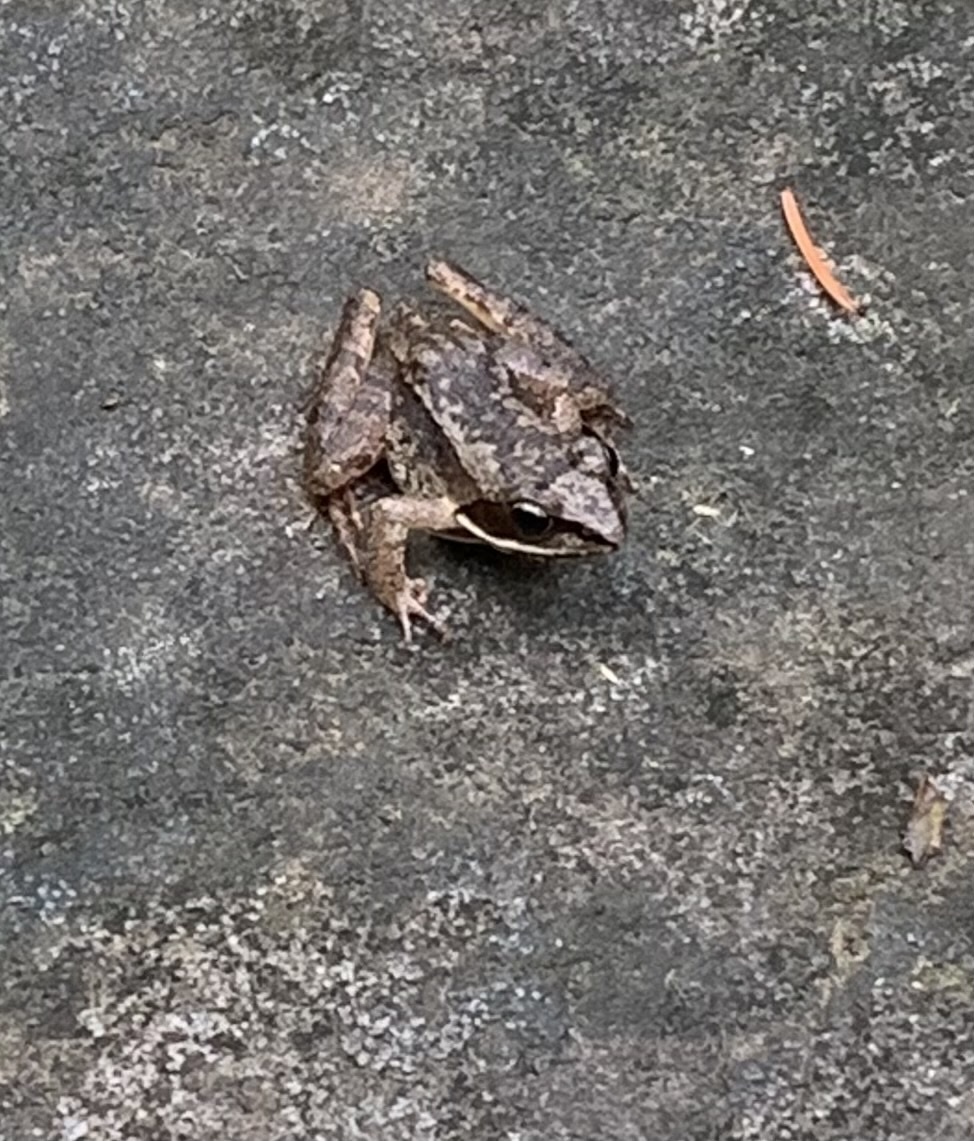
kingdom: Animalia
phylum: Chordata
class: Amphibia
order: Anura
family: Ranidae
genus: Lithobates
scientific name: Lithobates sylvaticus
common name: Wood frog
